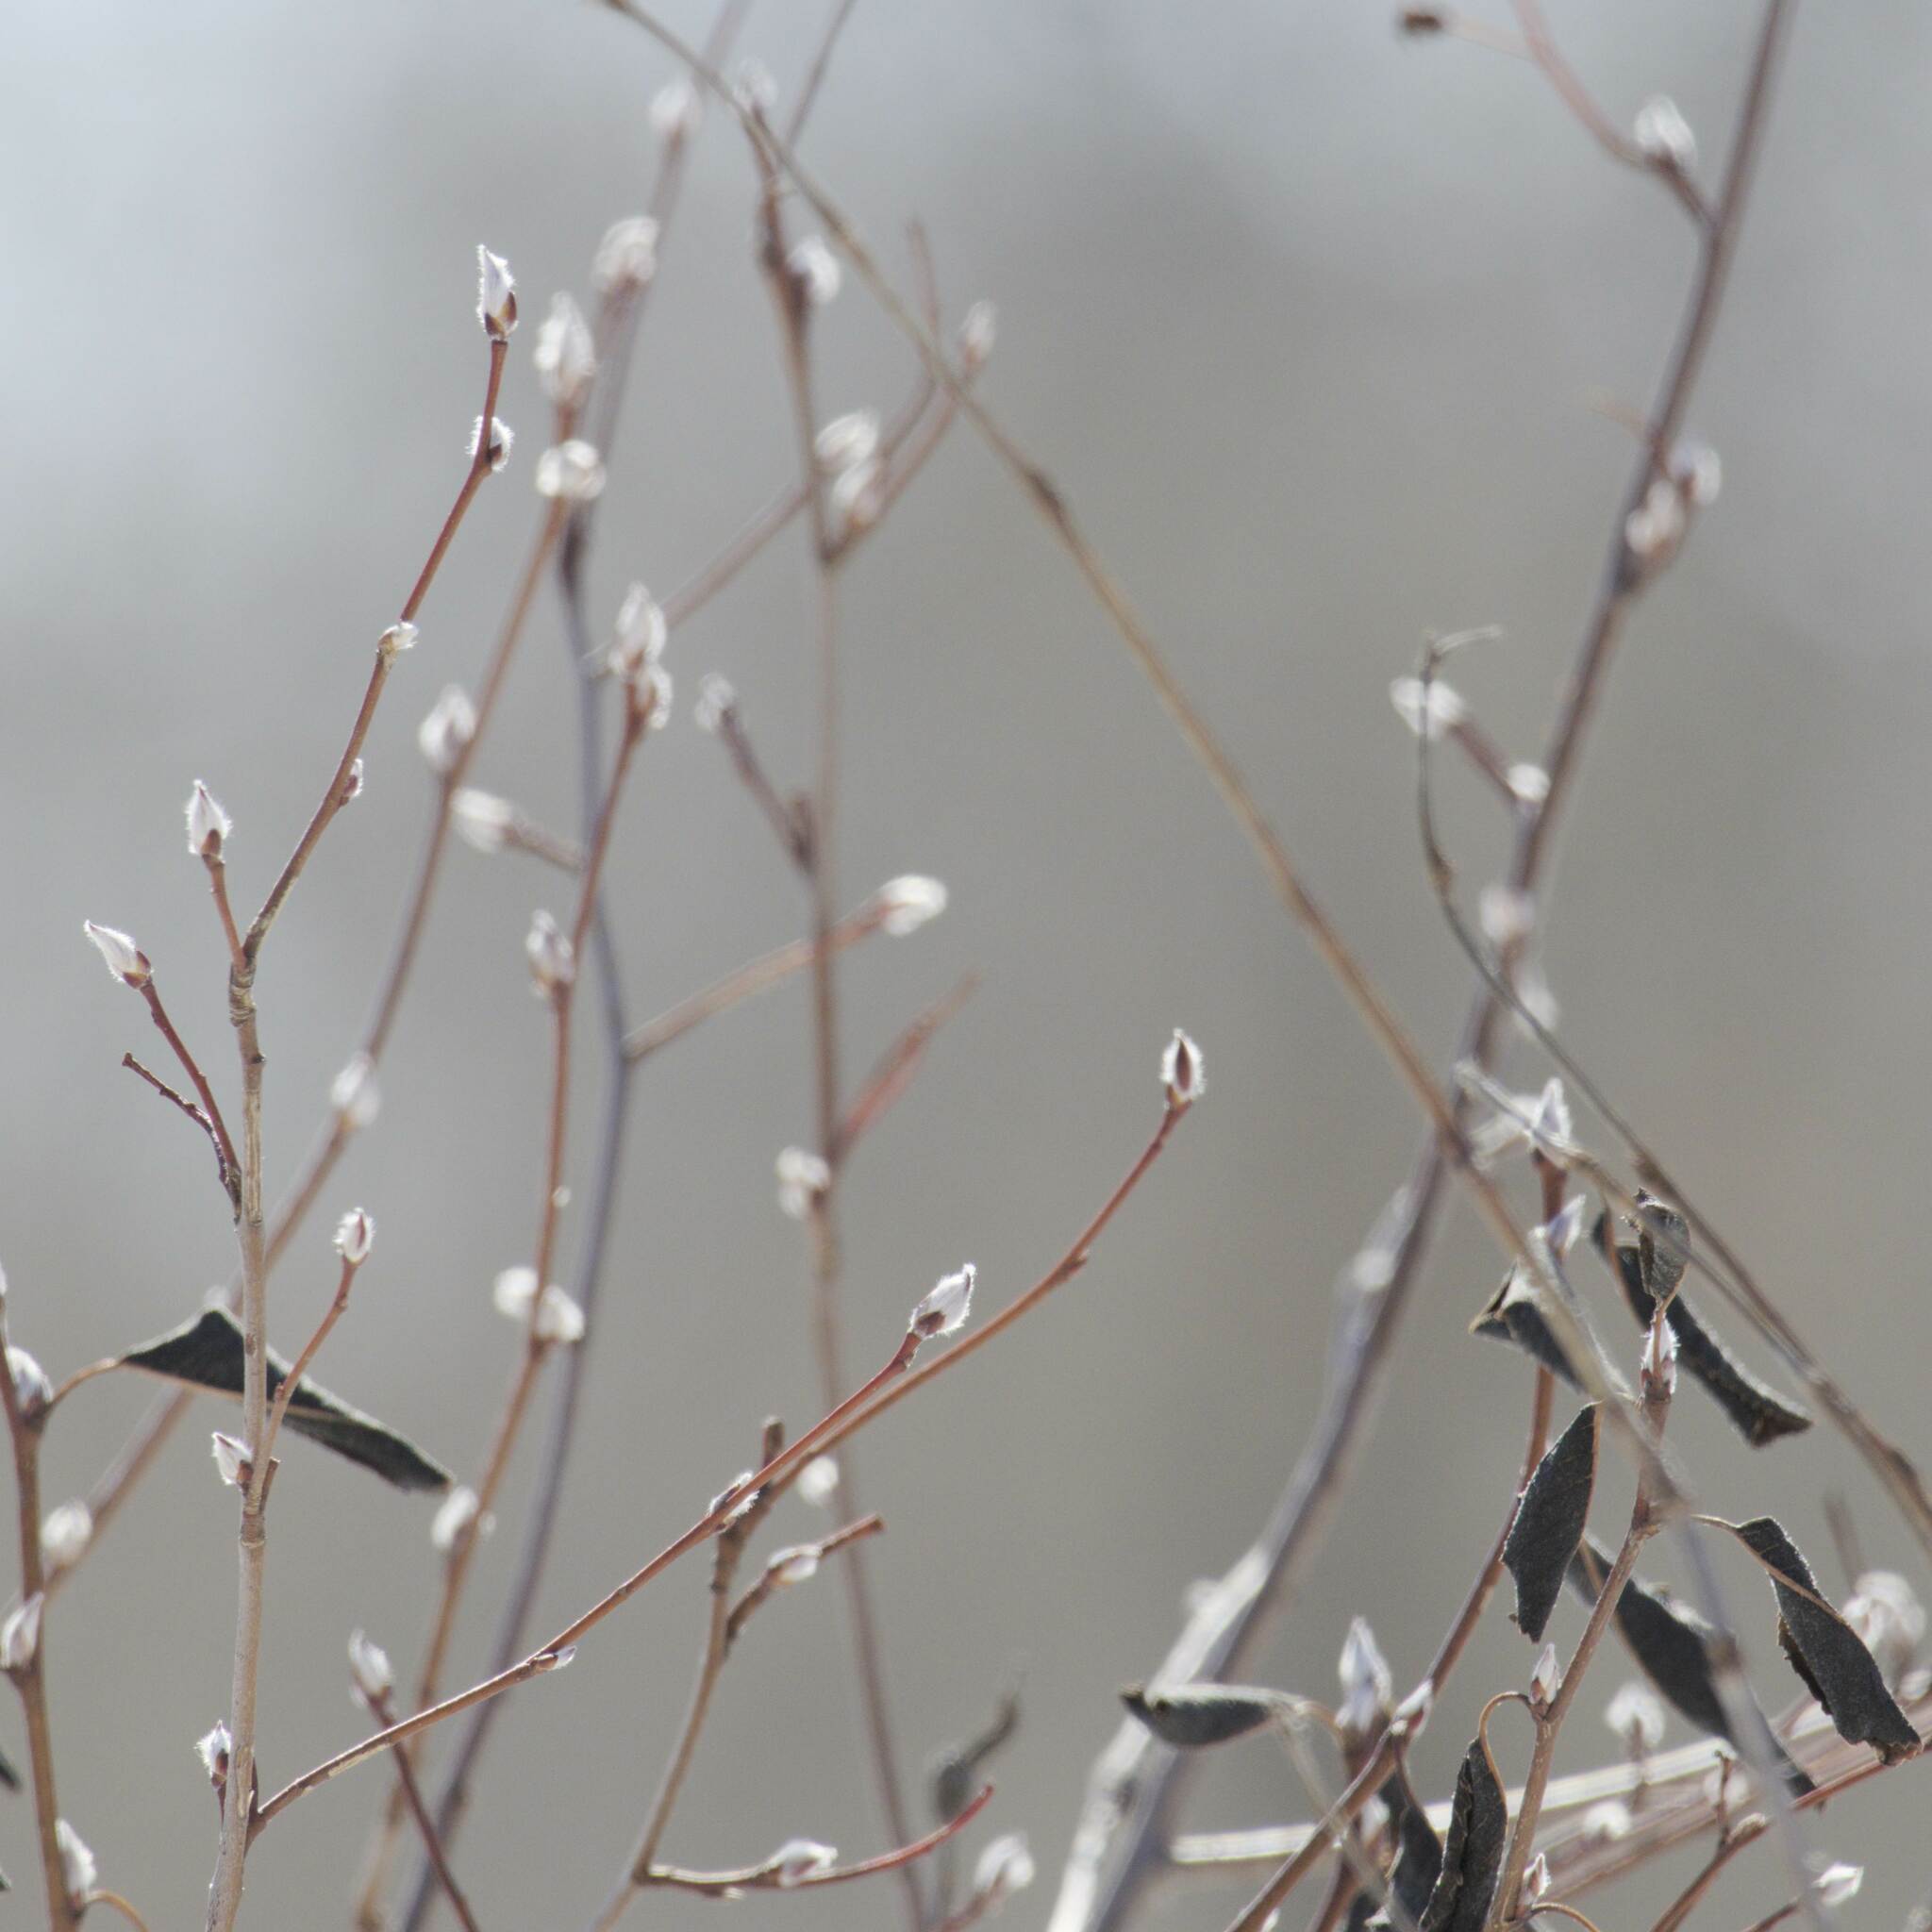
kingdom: Plantae
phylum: Tracheophyta
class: Magnoliopsida
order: Rosales
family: Rosaceae
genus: Amelanchier
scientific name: Amelanchier alnifolia
